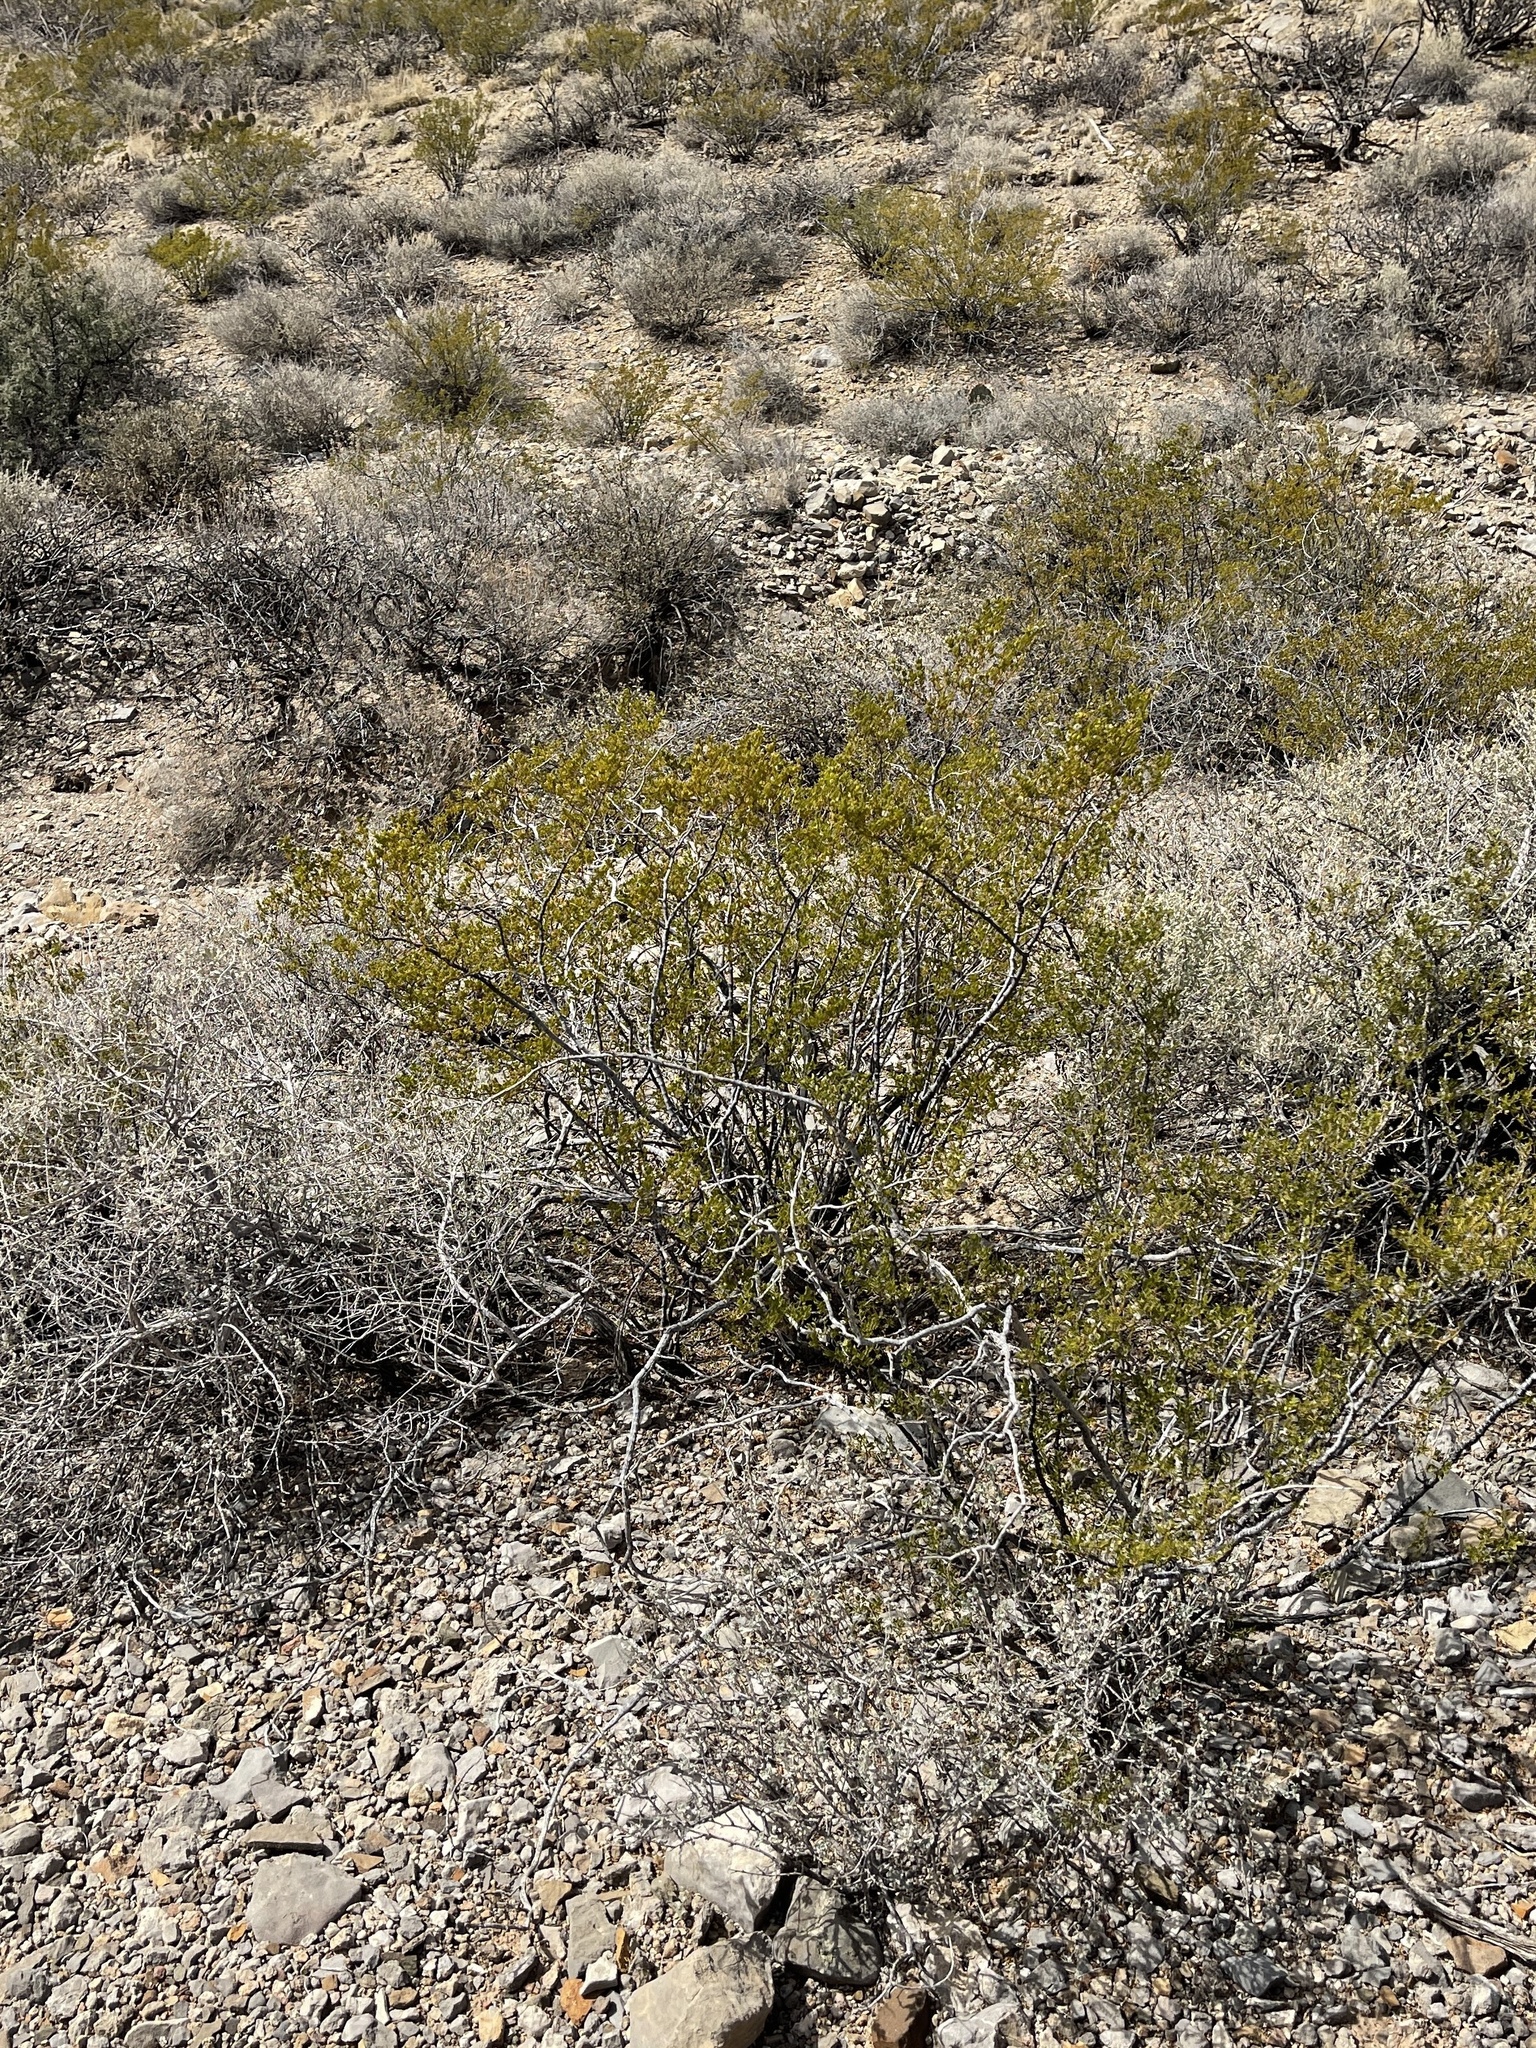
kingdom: Plantae
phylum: Tracheophyta
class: Magnoliopsida
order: Zygophyllales
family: Zygophyllaceae
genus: Larrea
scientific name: Larrea tridentata
